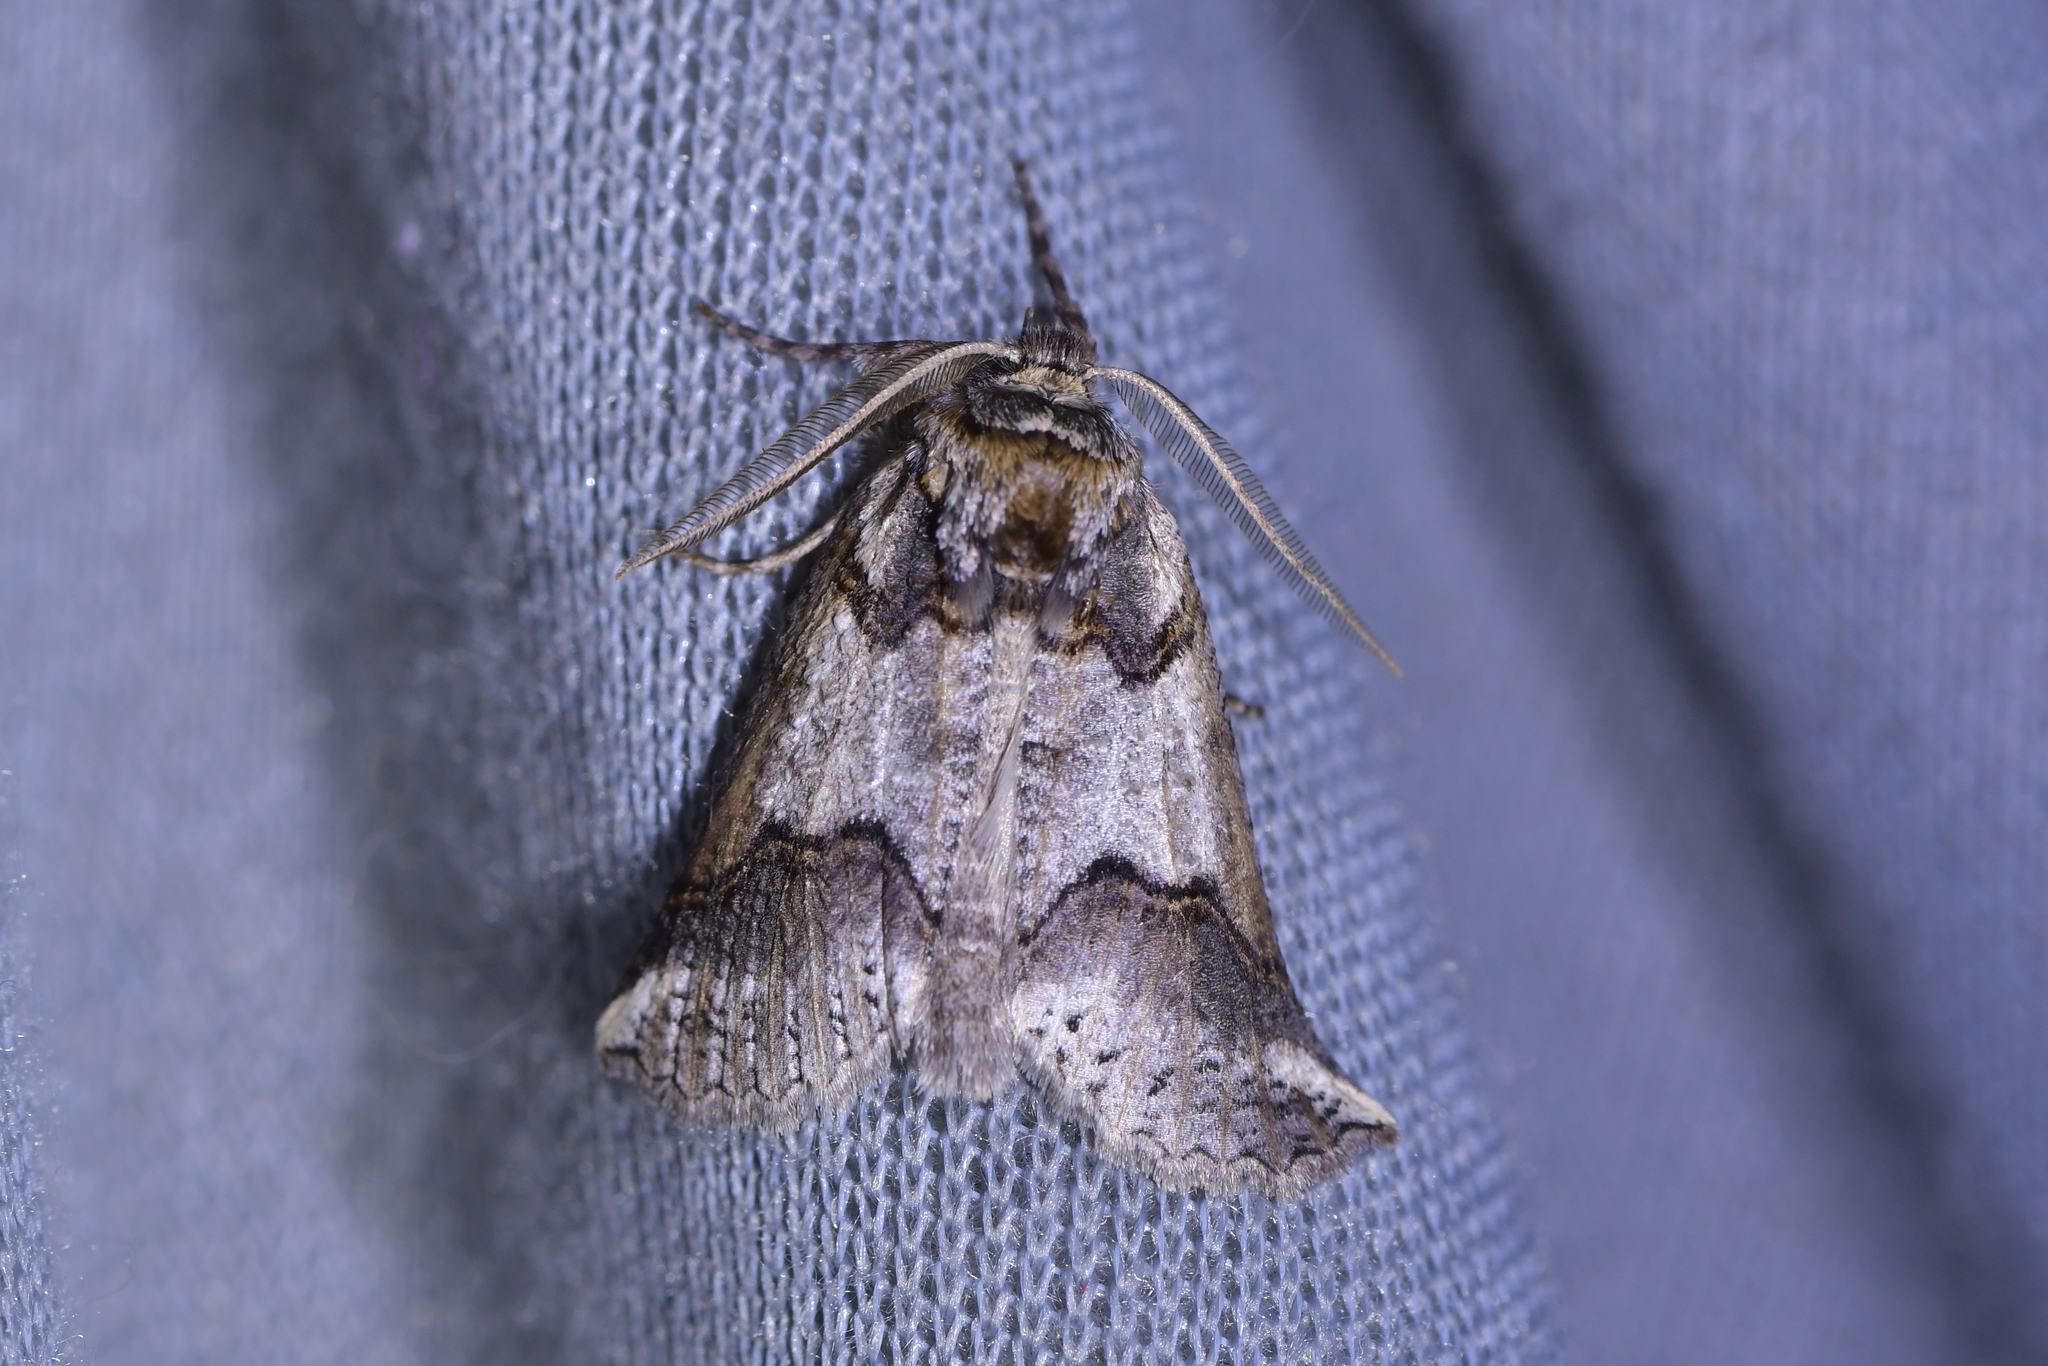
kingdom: Animalia
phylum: Arthropoda
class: Insecta
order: Lepidoptera
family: Geometridae
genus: Declana
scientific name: Declana
